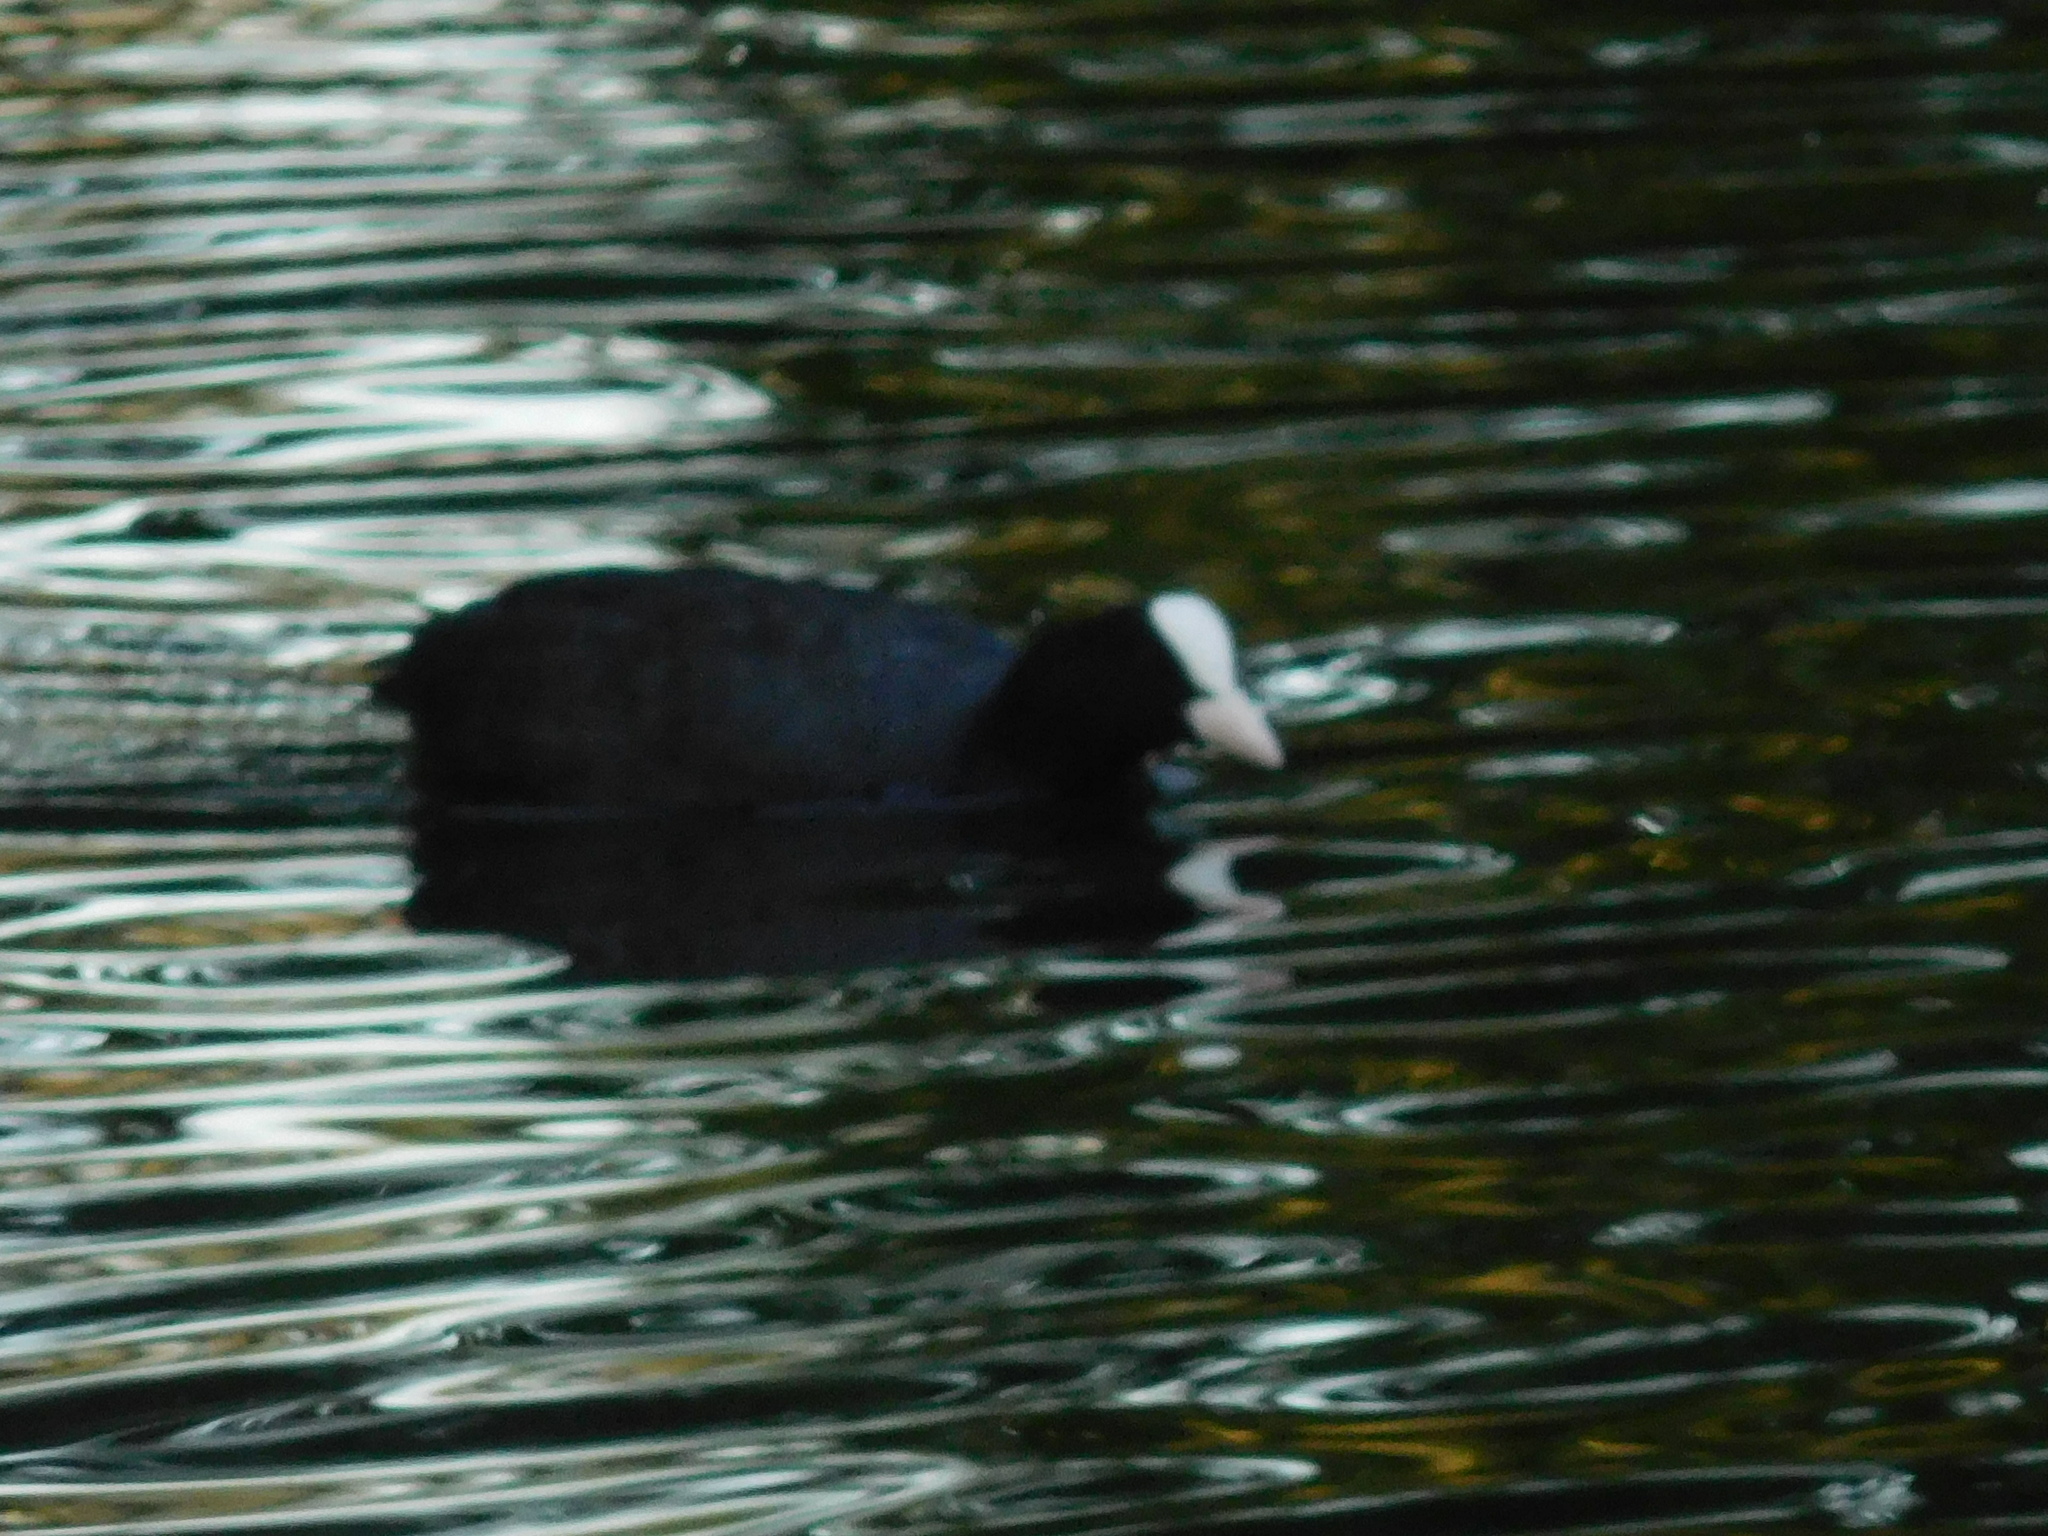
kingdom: Animalia
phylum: Chordata
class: Aves
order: Gruiformes
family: Rallidae
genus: Fulica
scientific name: Fulica atra
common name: Eurasian coot
